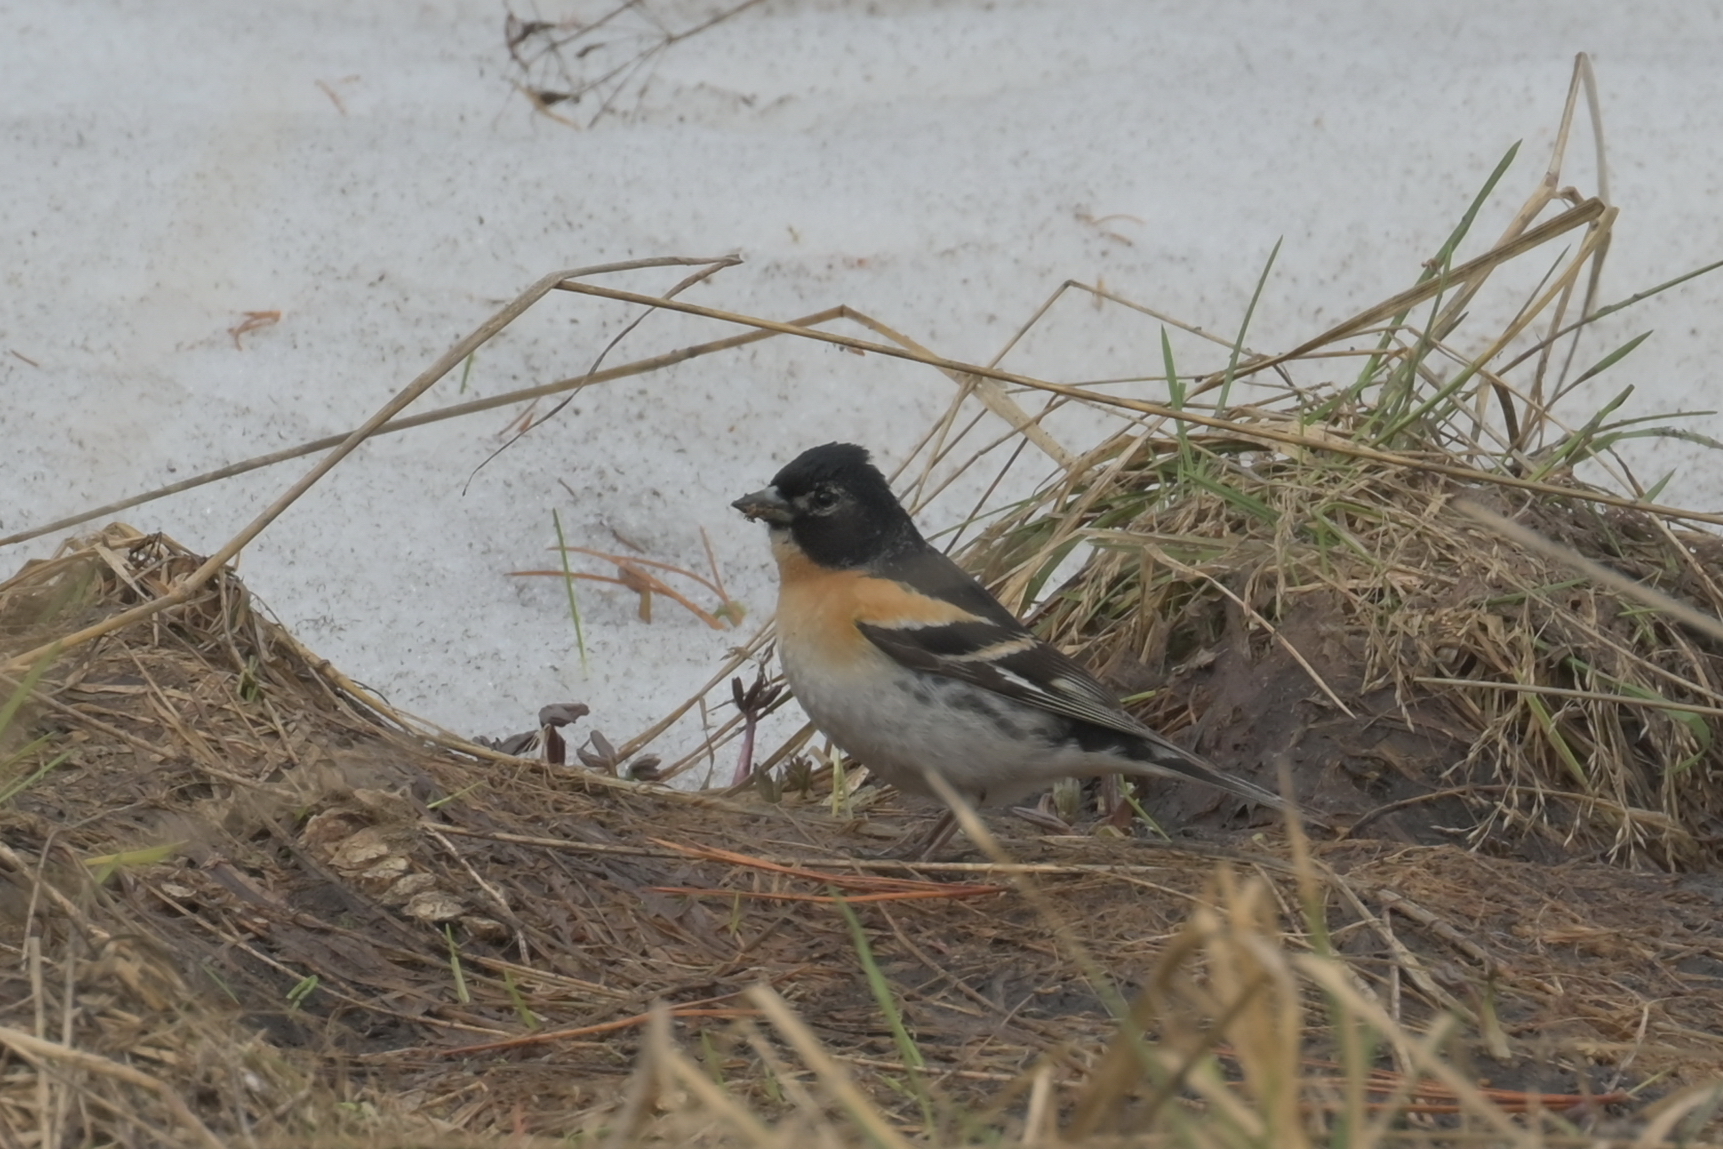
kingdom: Animalia
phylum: Chordata
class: Aves
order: Passeriformes
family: Fringillidae
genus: Fringilla
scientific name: Fringilla montifringilla
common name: Brambling
